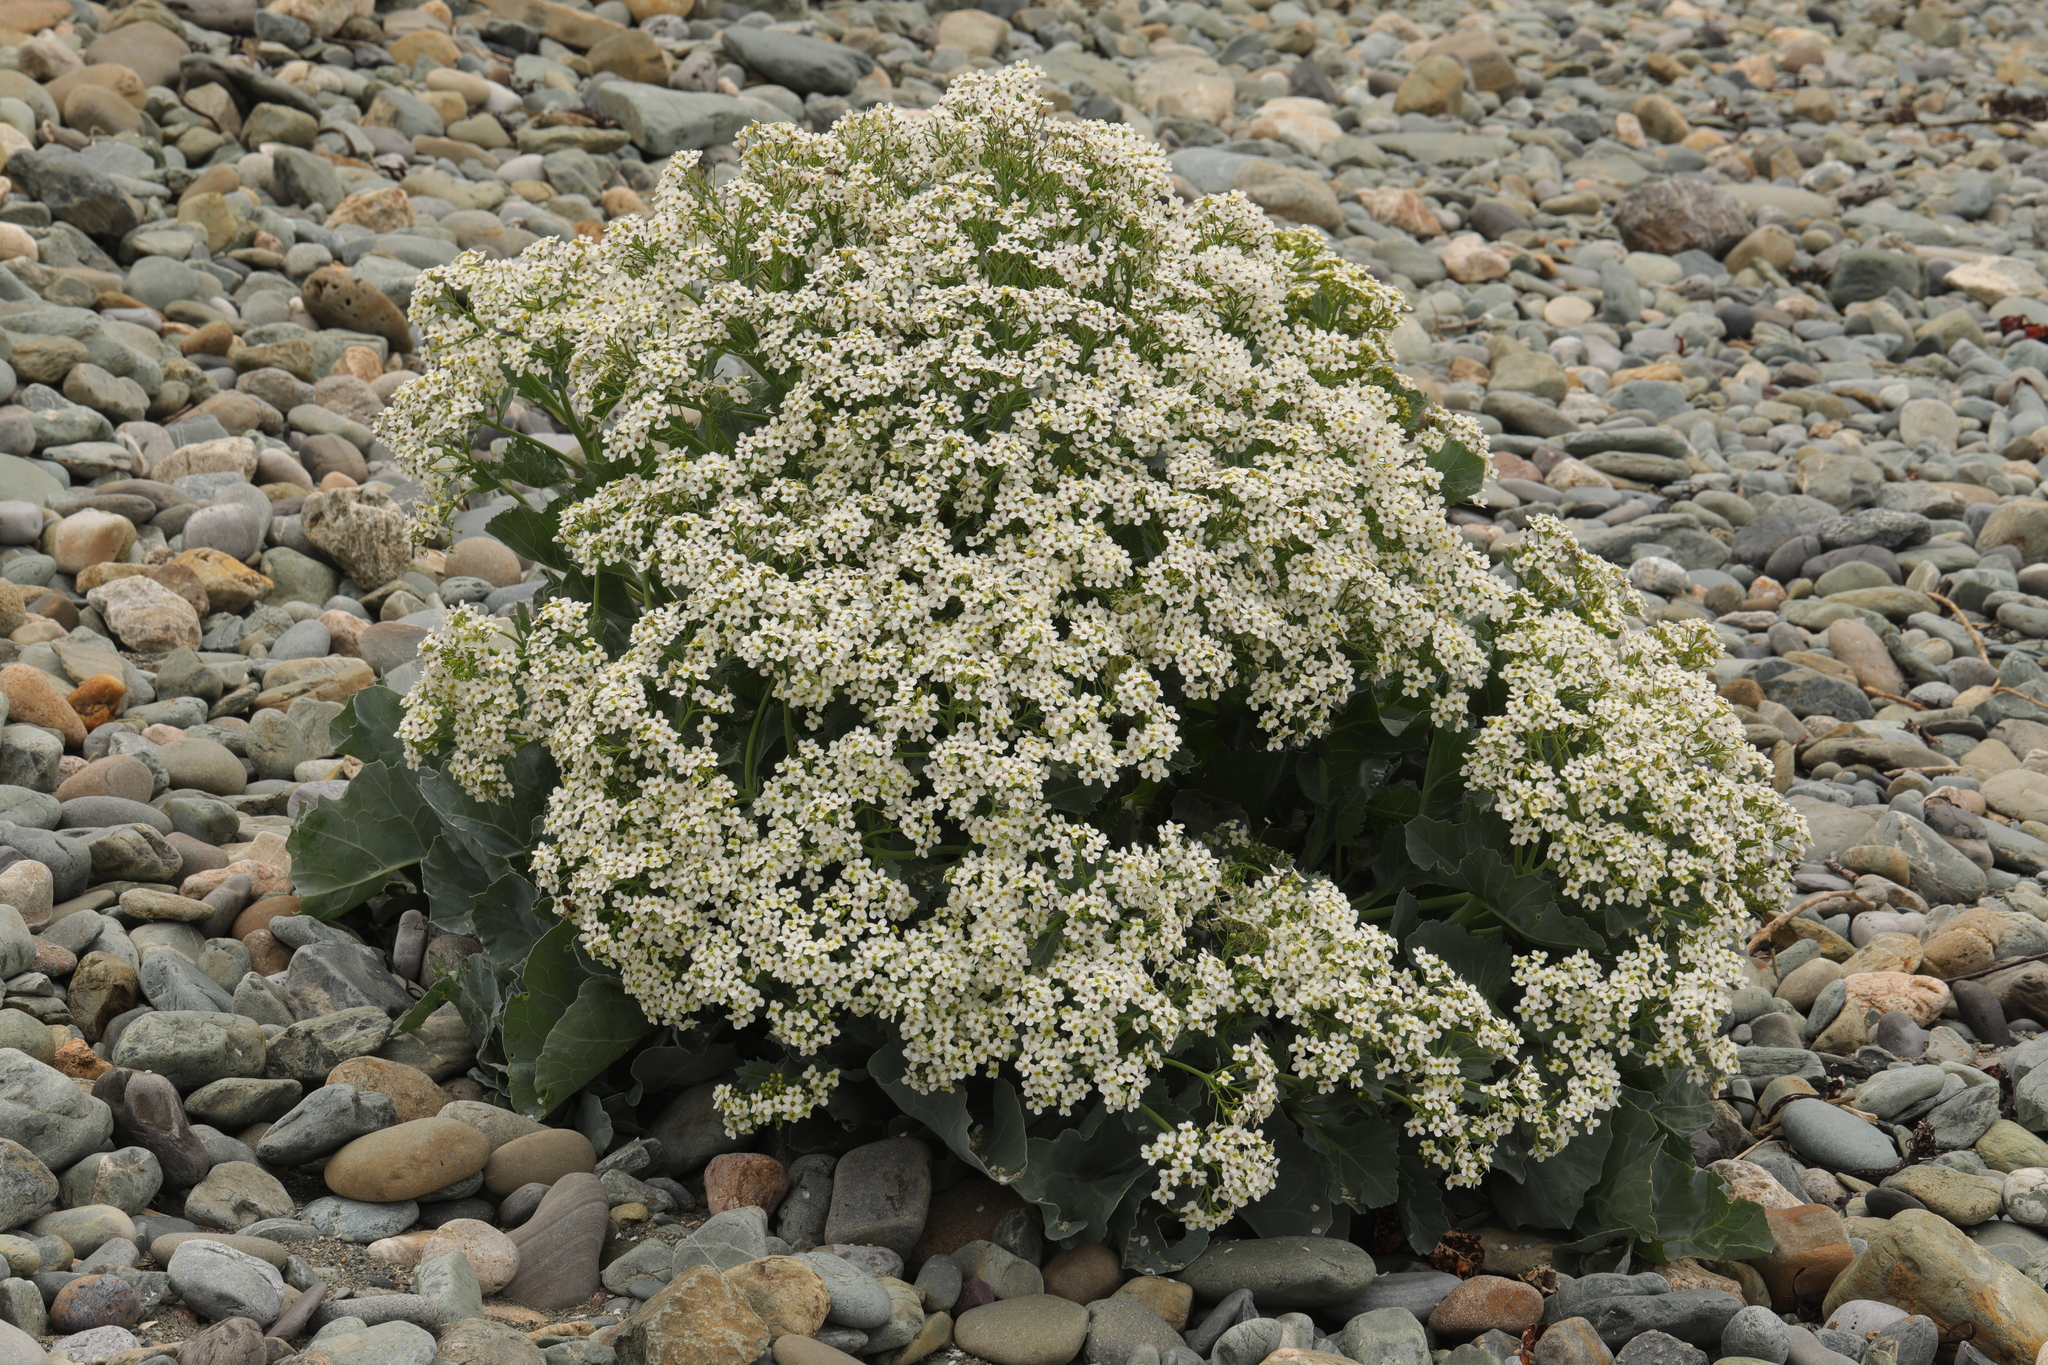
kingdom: Plantae
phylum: Tracheophyta
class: Magnoliopsida
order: Brassicales
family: Brassicaceae
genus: Crambe
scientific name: Crambe maritima
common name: Sea-kale
